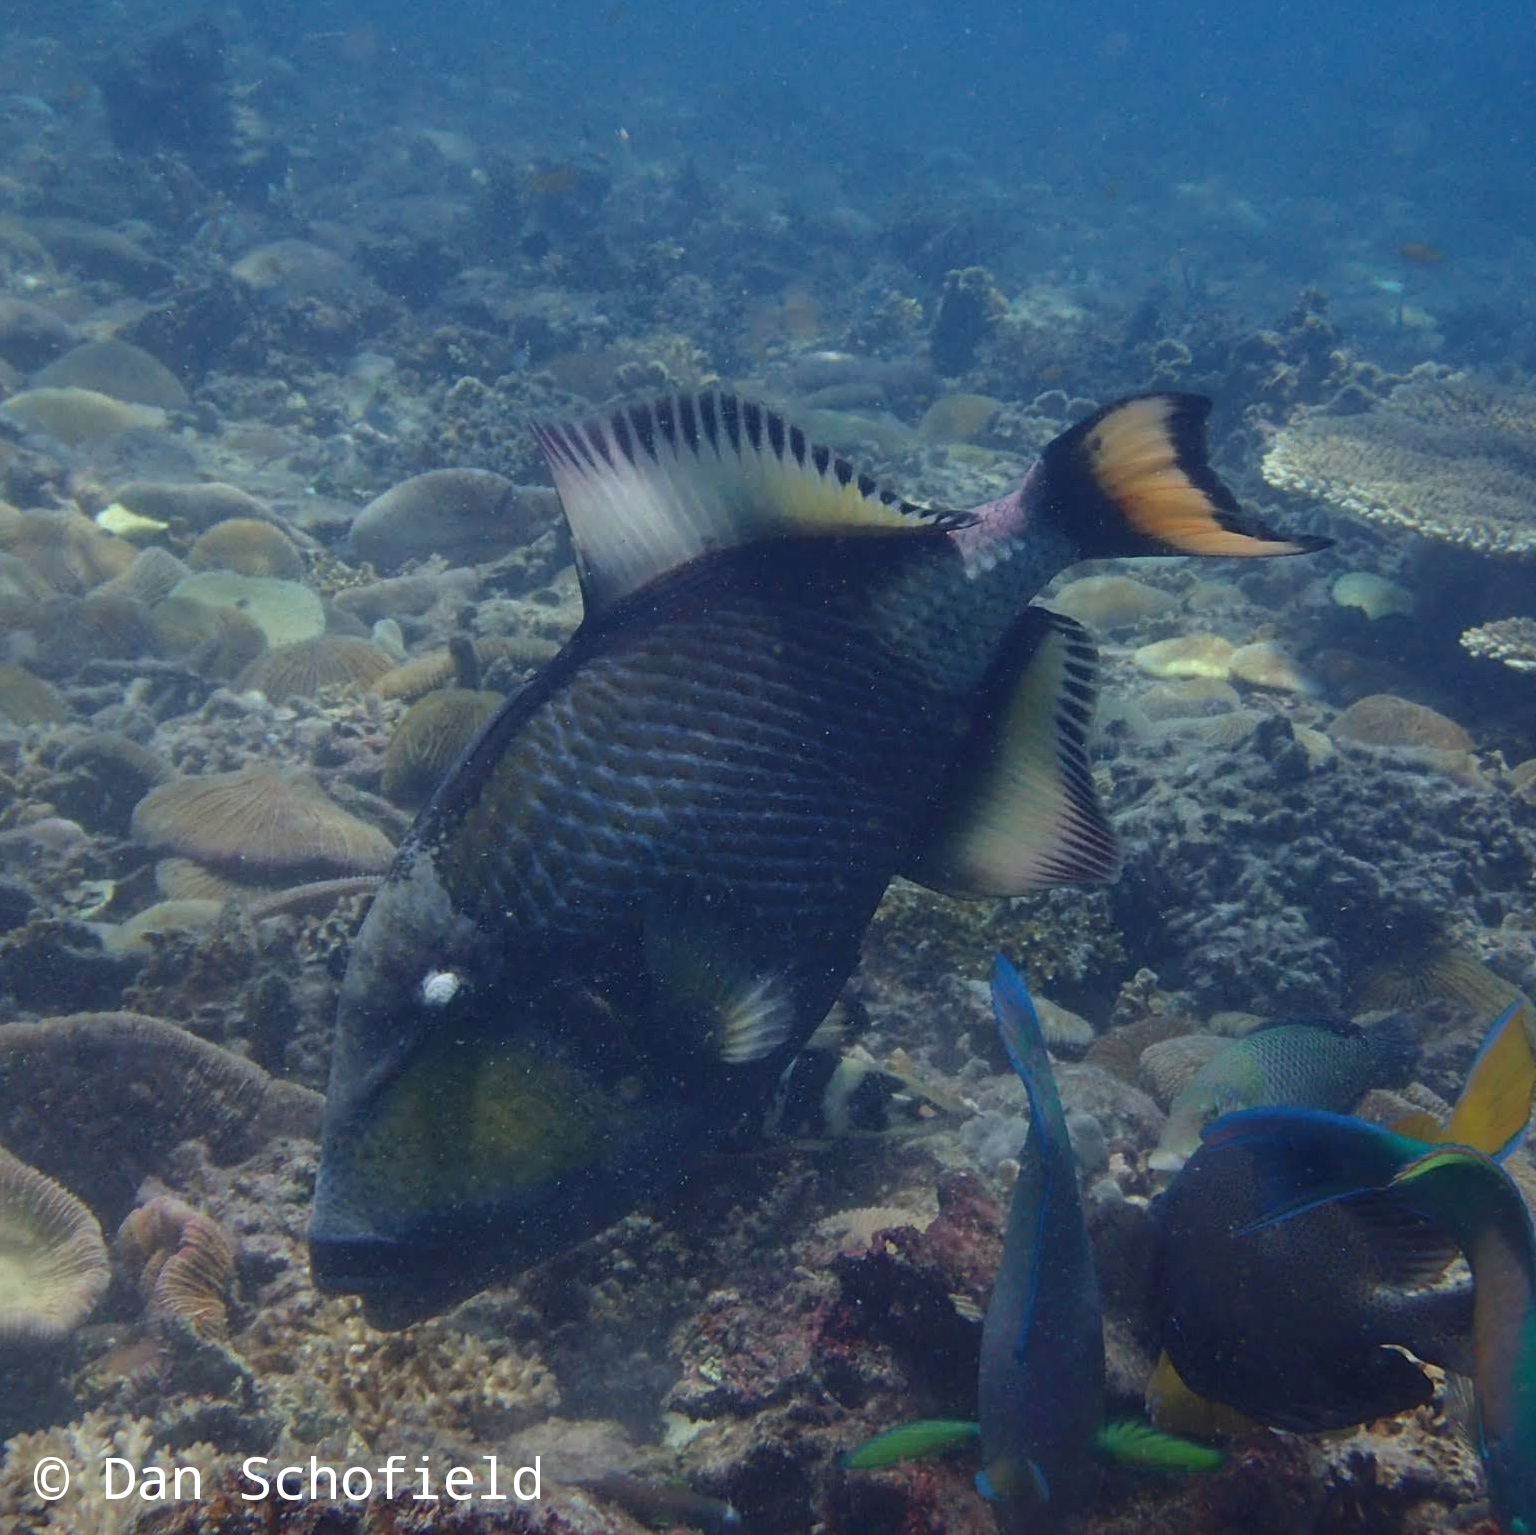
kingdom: Animalia
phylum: Chordata
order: Tetraodontiformes
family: Balistidae
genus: Balistoides
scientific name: Balistoides viridescens
